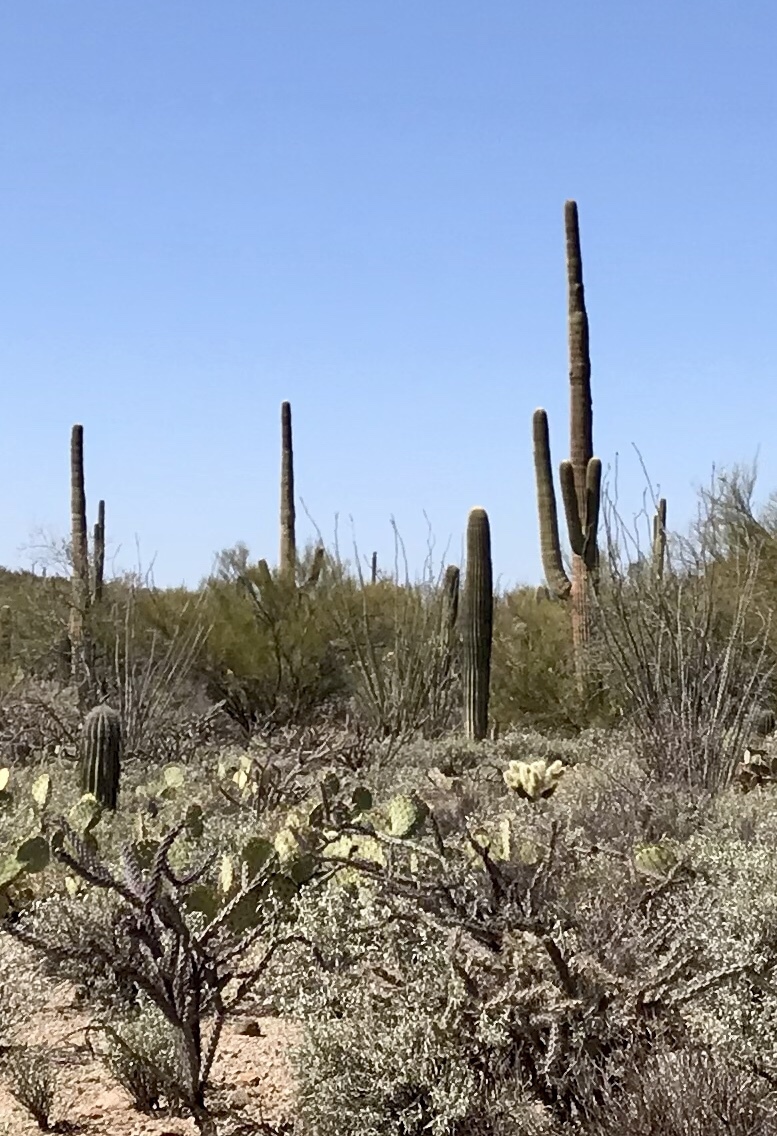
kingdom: Plantae
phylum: Tracheophyta
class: Magnoliopsida
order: Caryophyllales
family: Cactaceae
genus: Carnegiea
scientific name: Carnegiea gigantea
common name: Saguaro
